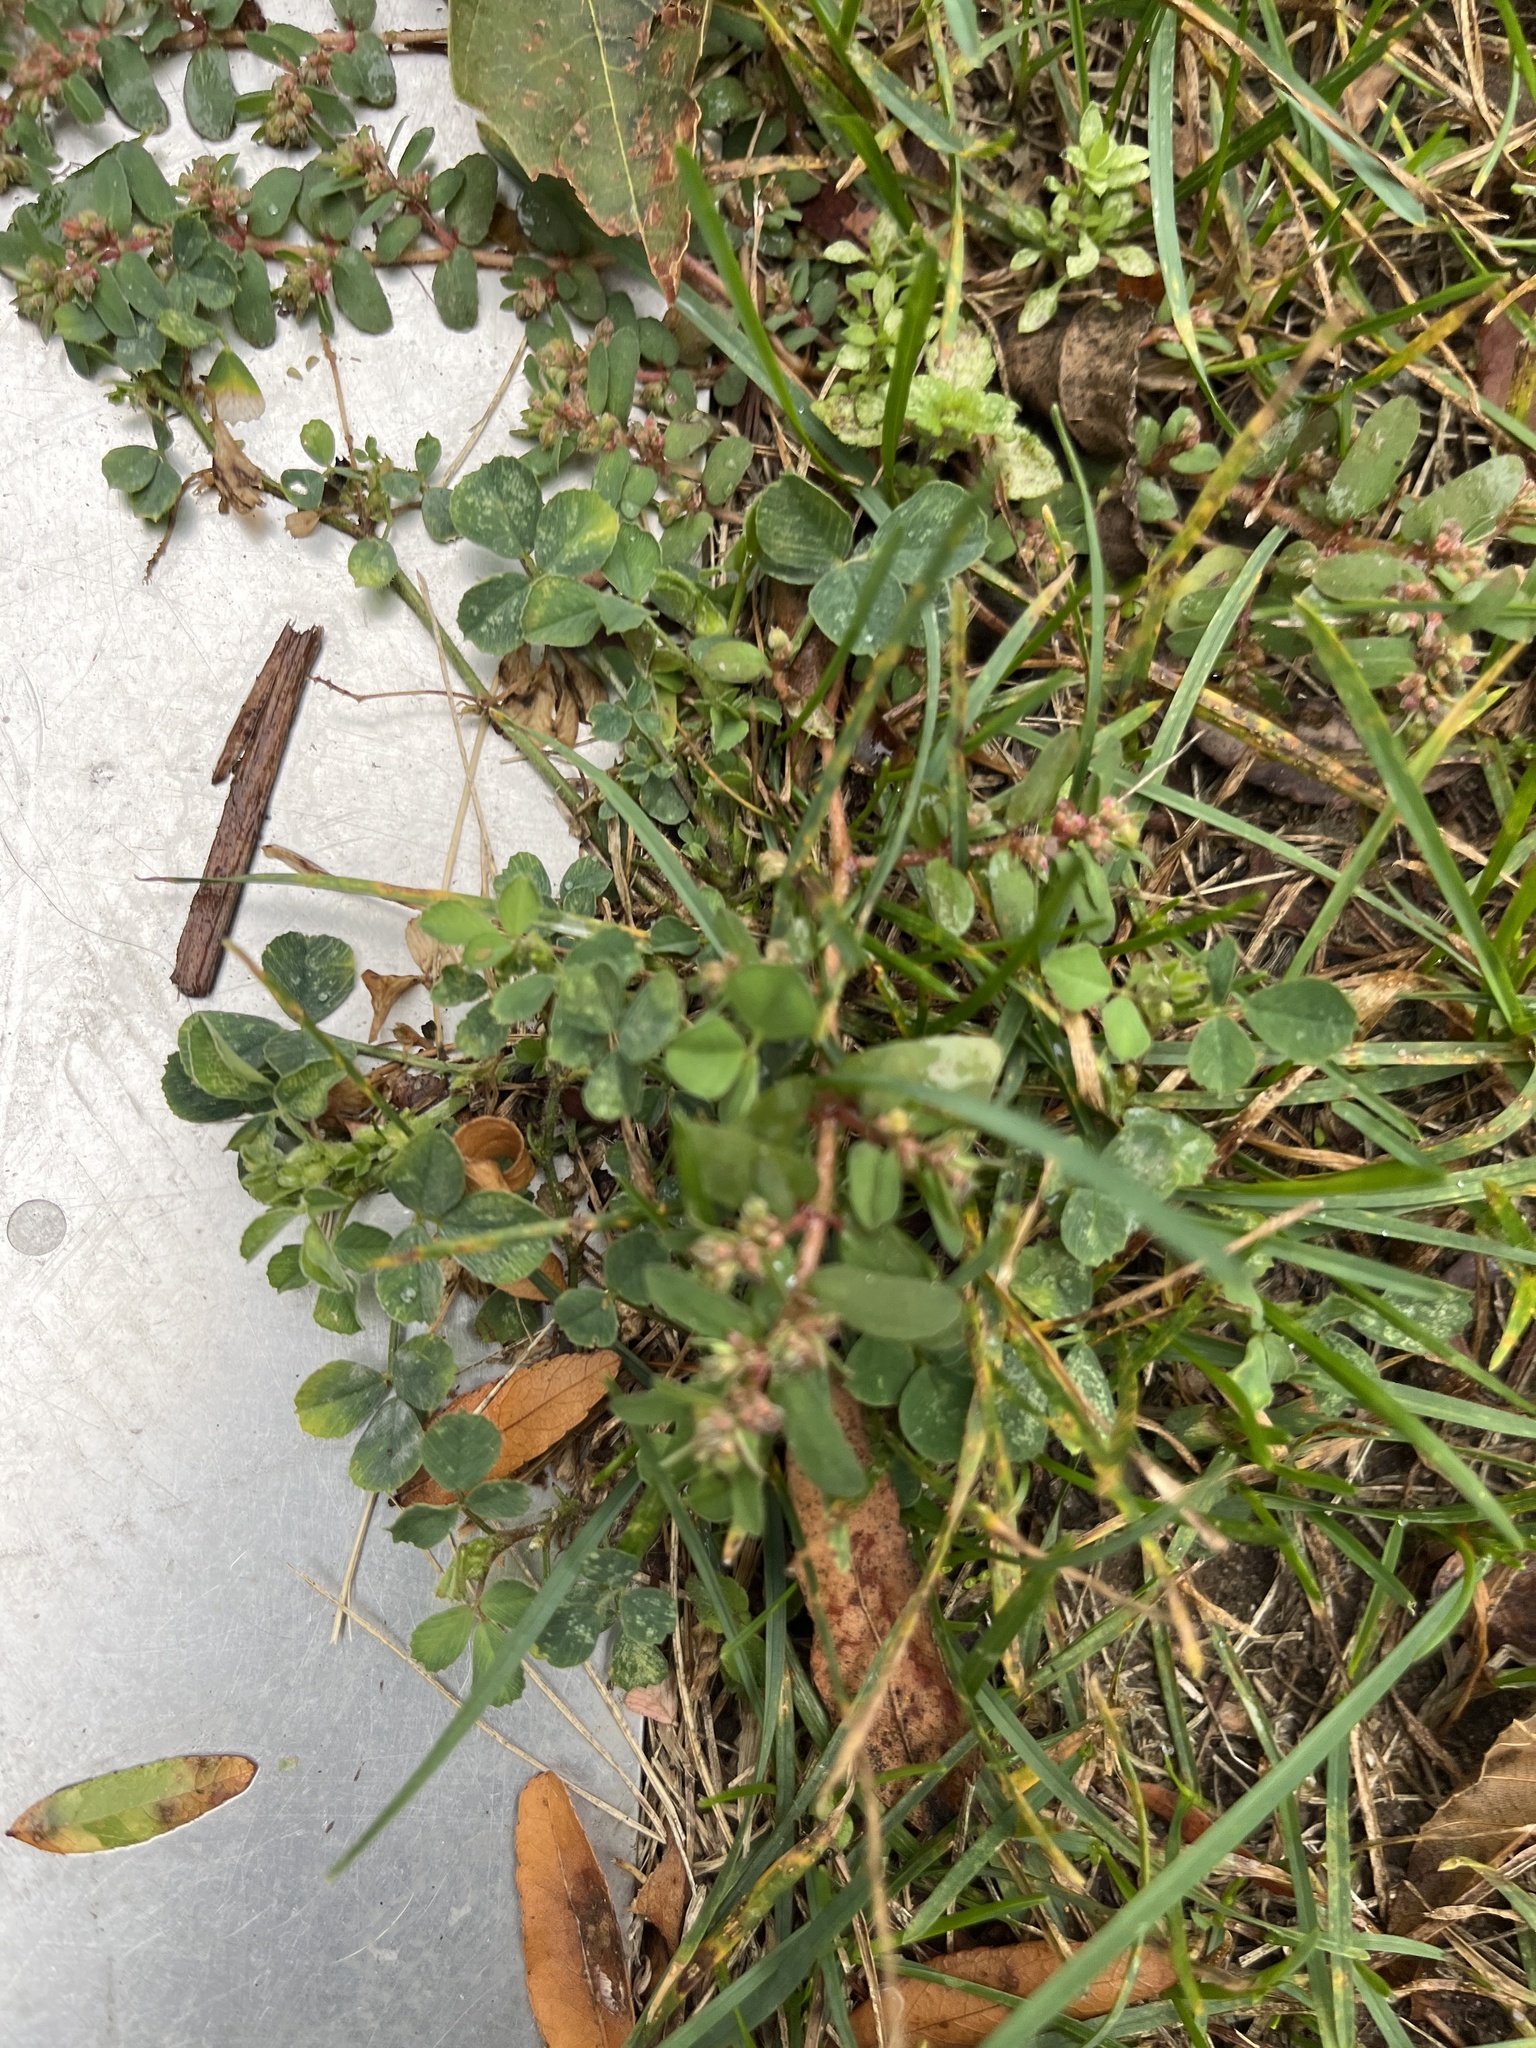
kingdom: Plantae
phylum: Tracheophyta
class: Magnoliopsida
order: Fabales
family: Fabaceae
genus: Medicago
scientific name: Medicago lupulina
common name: Black medick
